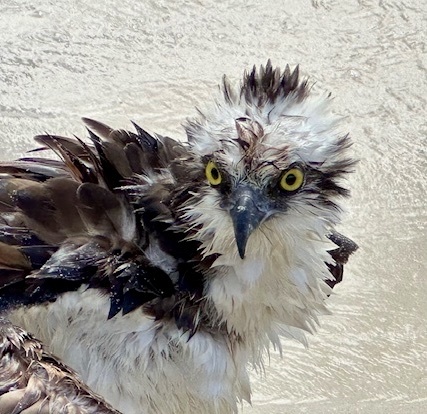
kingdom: Animalia
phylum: Chordata
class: Aves
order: Accipitriformes
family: Pandionidae
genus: Pandion
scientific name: Pandion haliaetus
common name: Osprey
